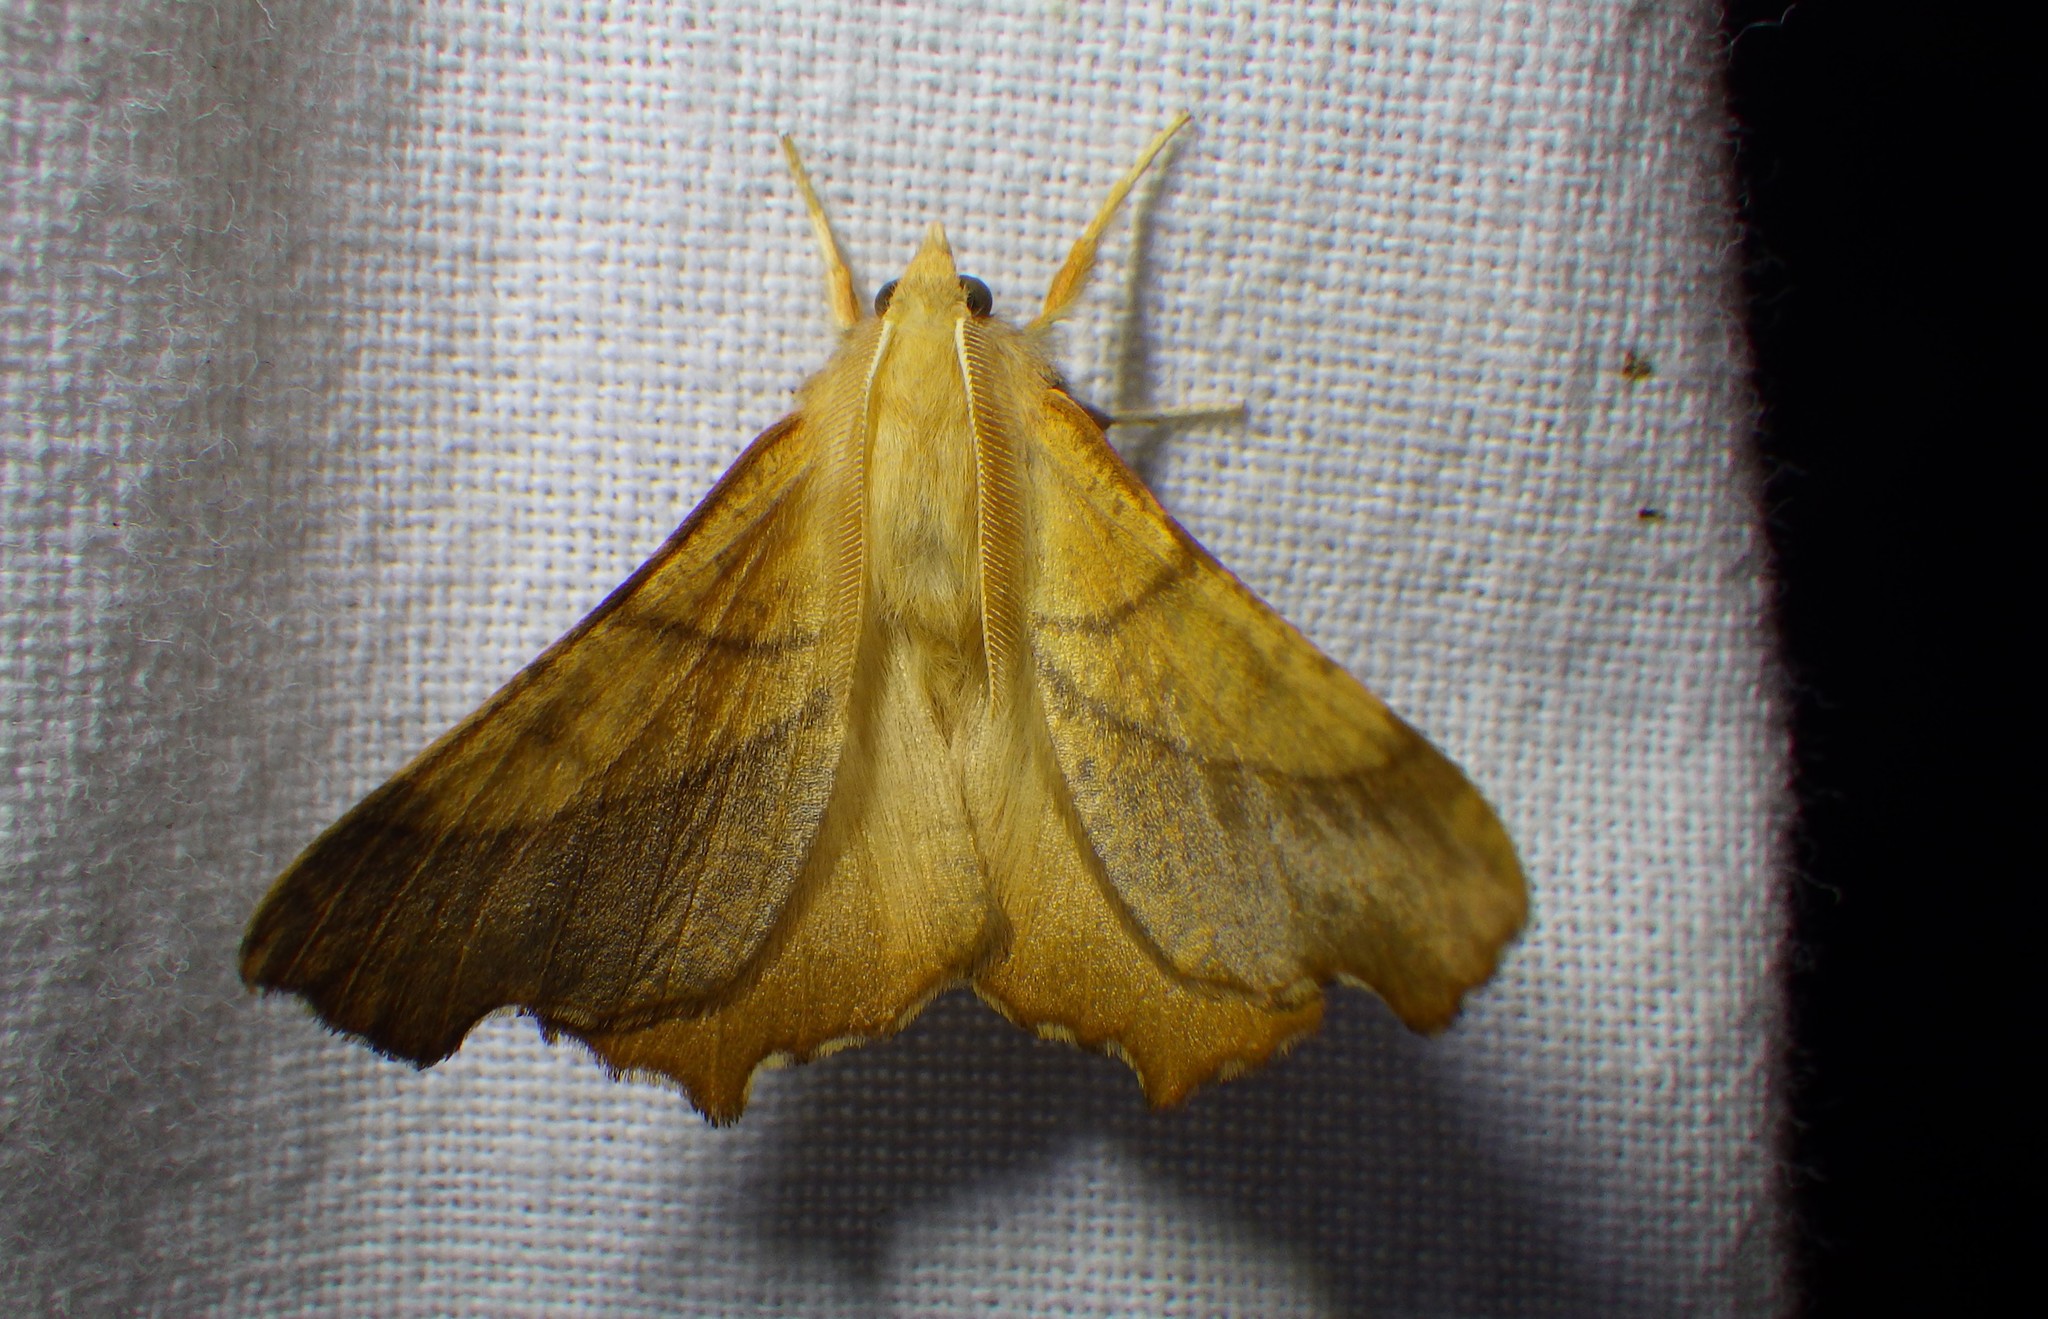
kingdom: Animalia
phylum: Arthropoda
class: Insecta
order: Lepidoptera
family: Geometridae
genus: Ennomos
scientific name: Ennomos fuscantaria
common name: Dusky thorn
